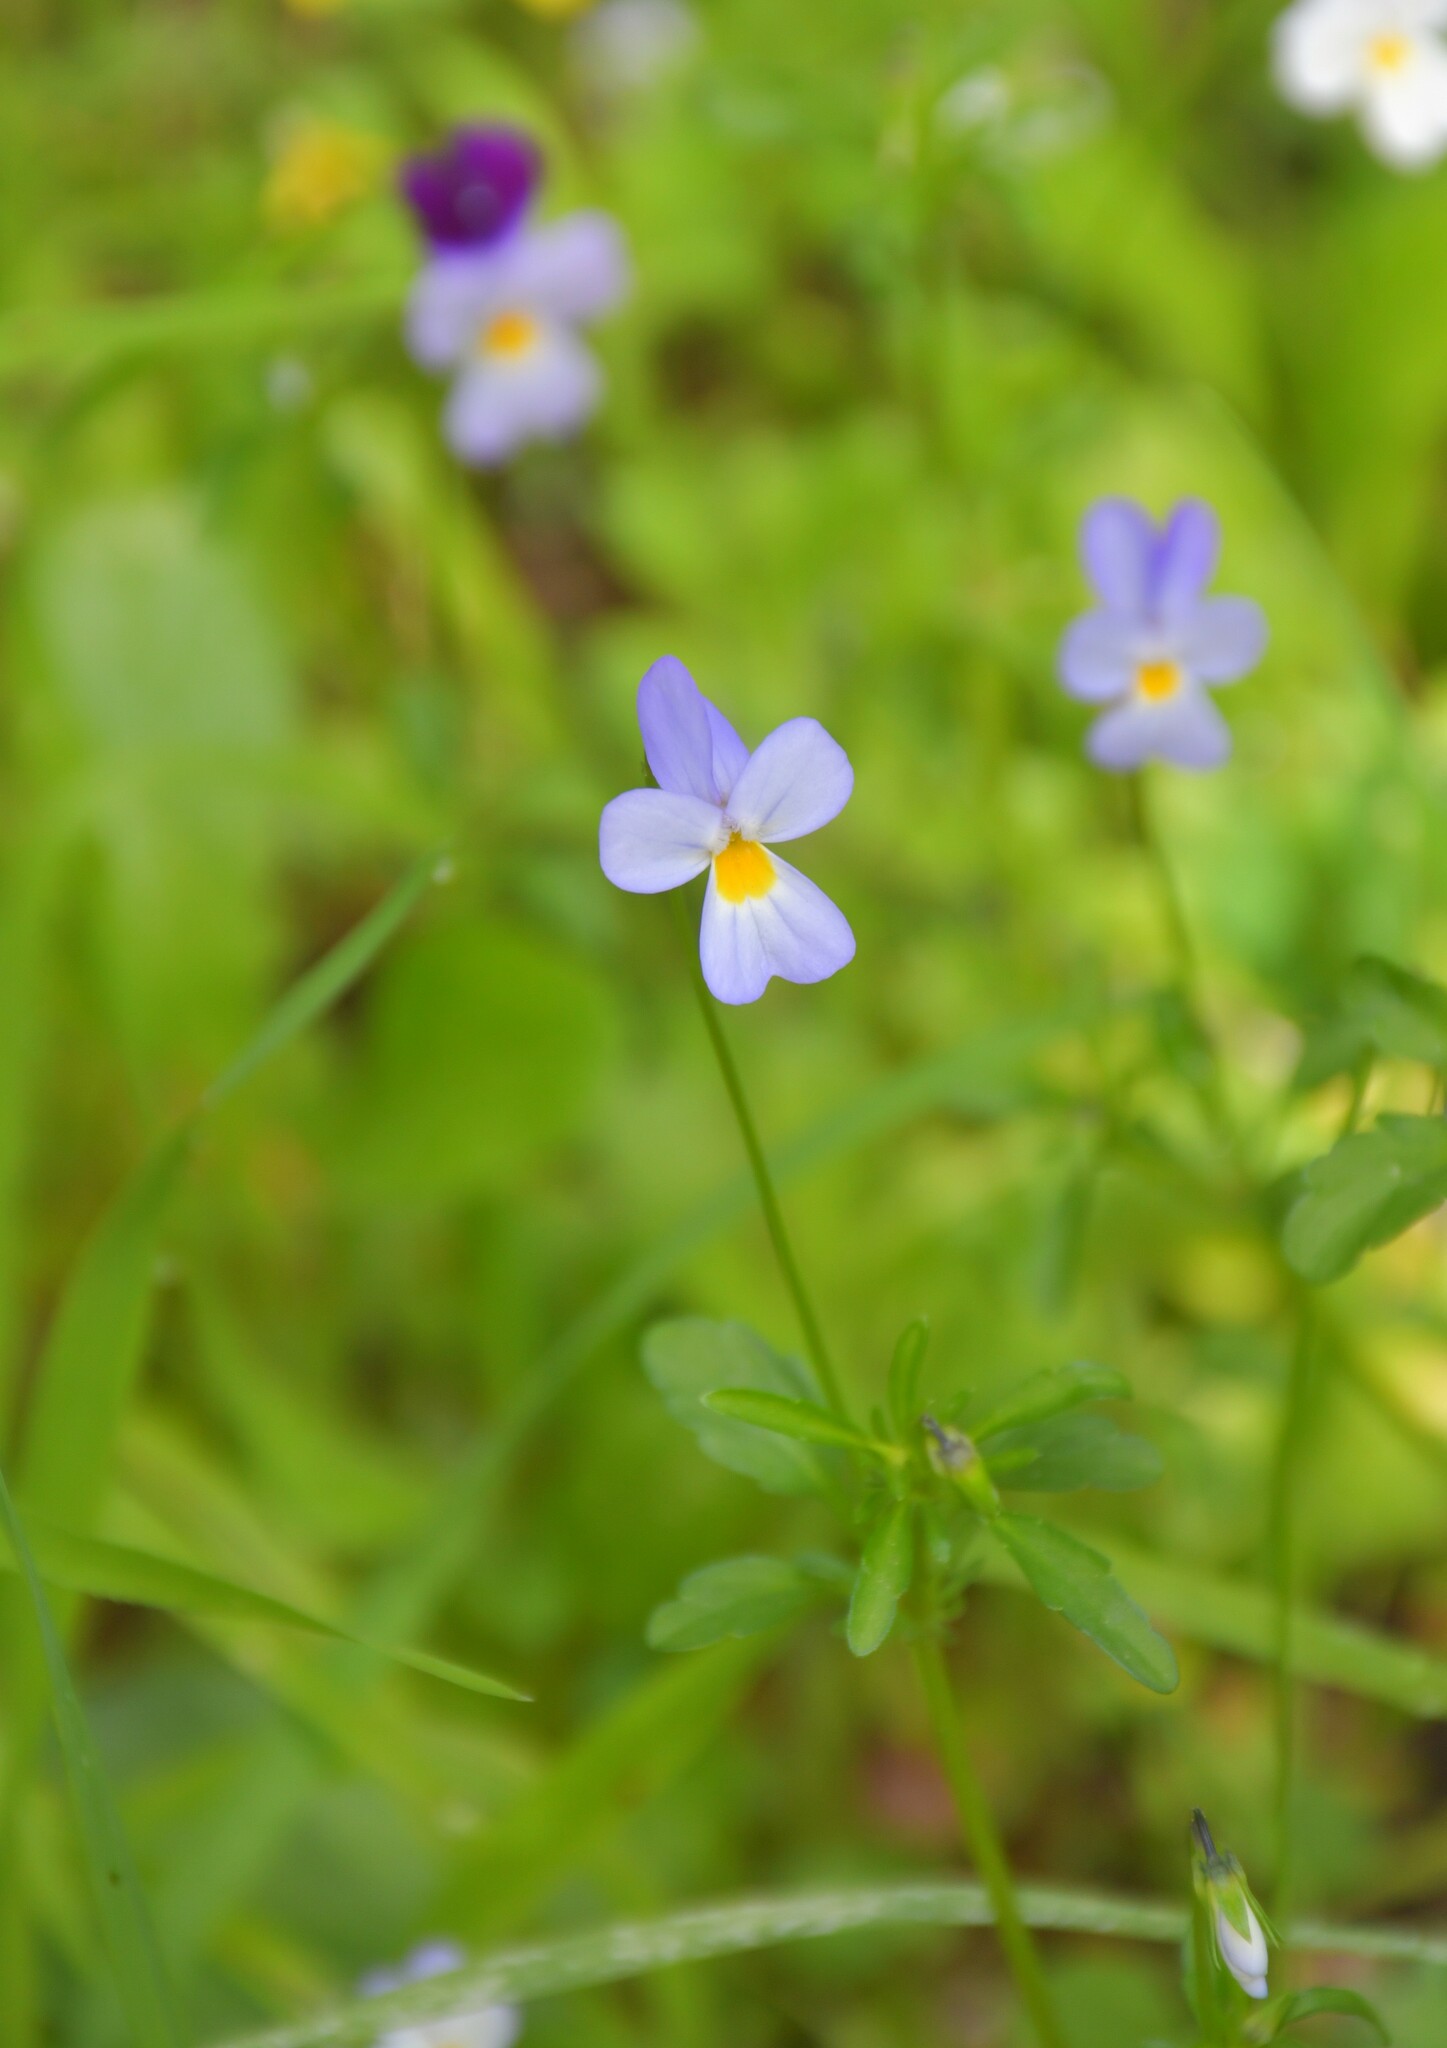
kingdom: Plantae
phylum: Tracheophyta
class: Magnoliopsida
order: Malpighiales
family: Violaceae
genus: Viola
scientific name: Viola kitaibeliana
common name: Dwarf pansy
